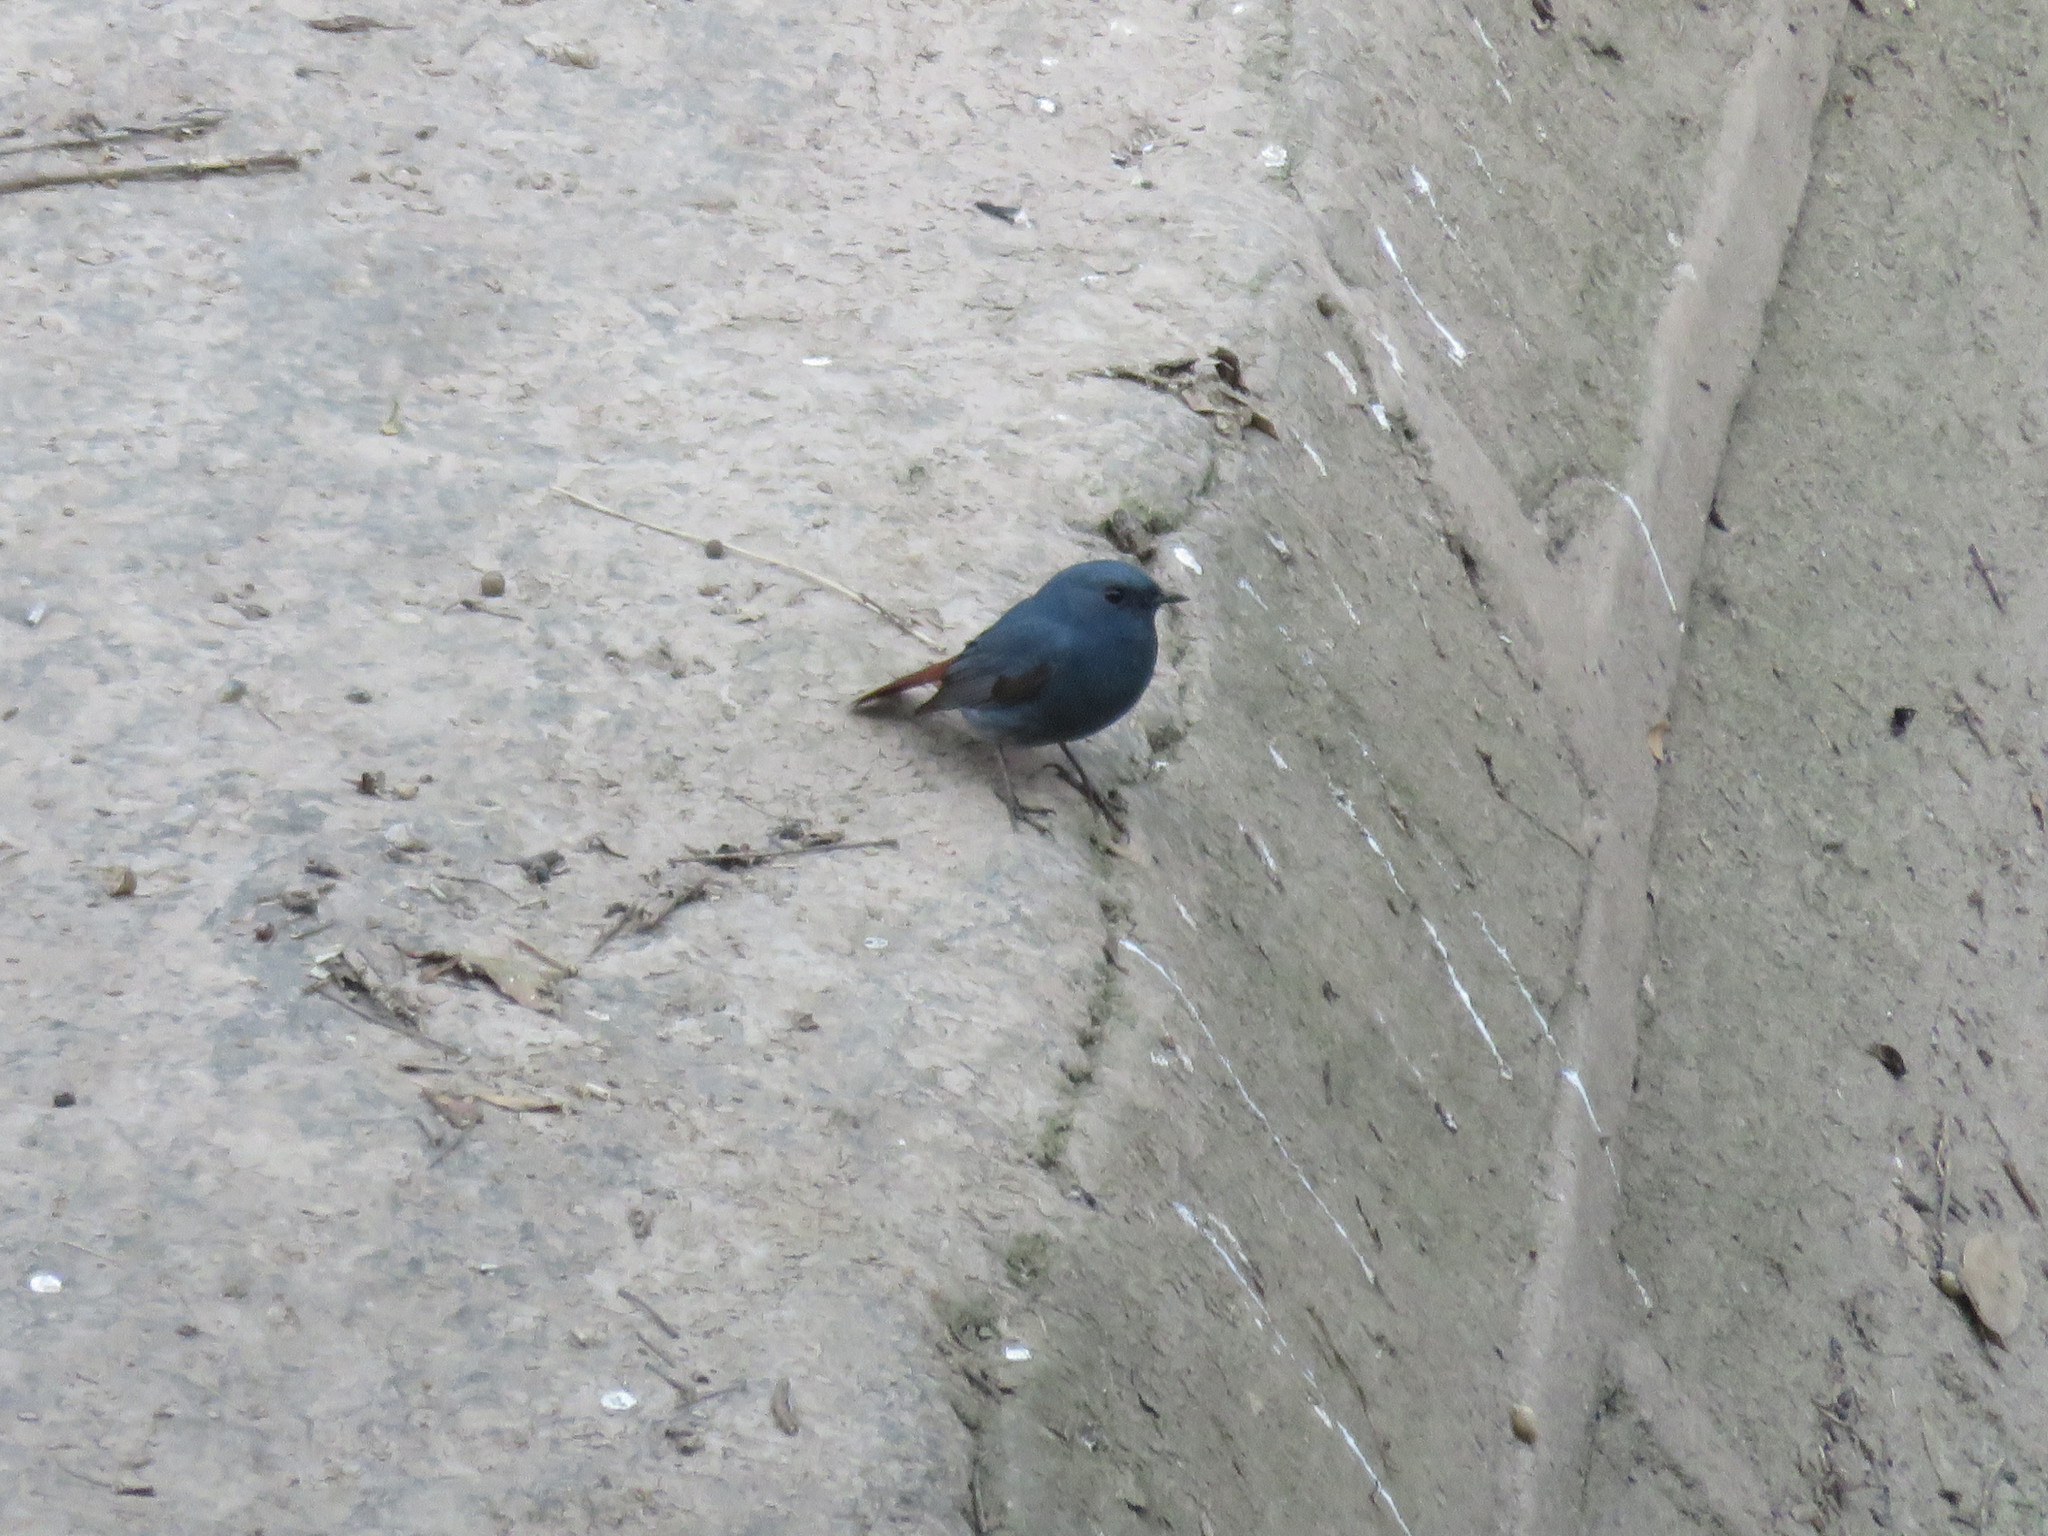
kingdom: Animalia
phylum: Chordata
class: Aves
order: Passeriformes
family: Muscicapidae
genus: Phoenicurus
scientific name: Phoenicurus fuliginosus
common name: Plumbeous water redstart
